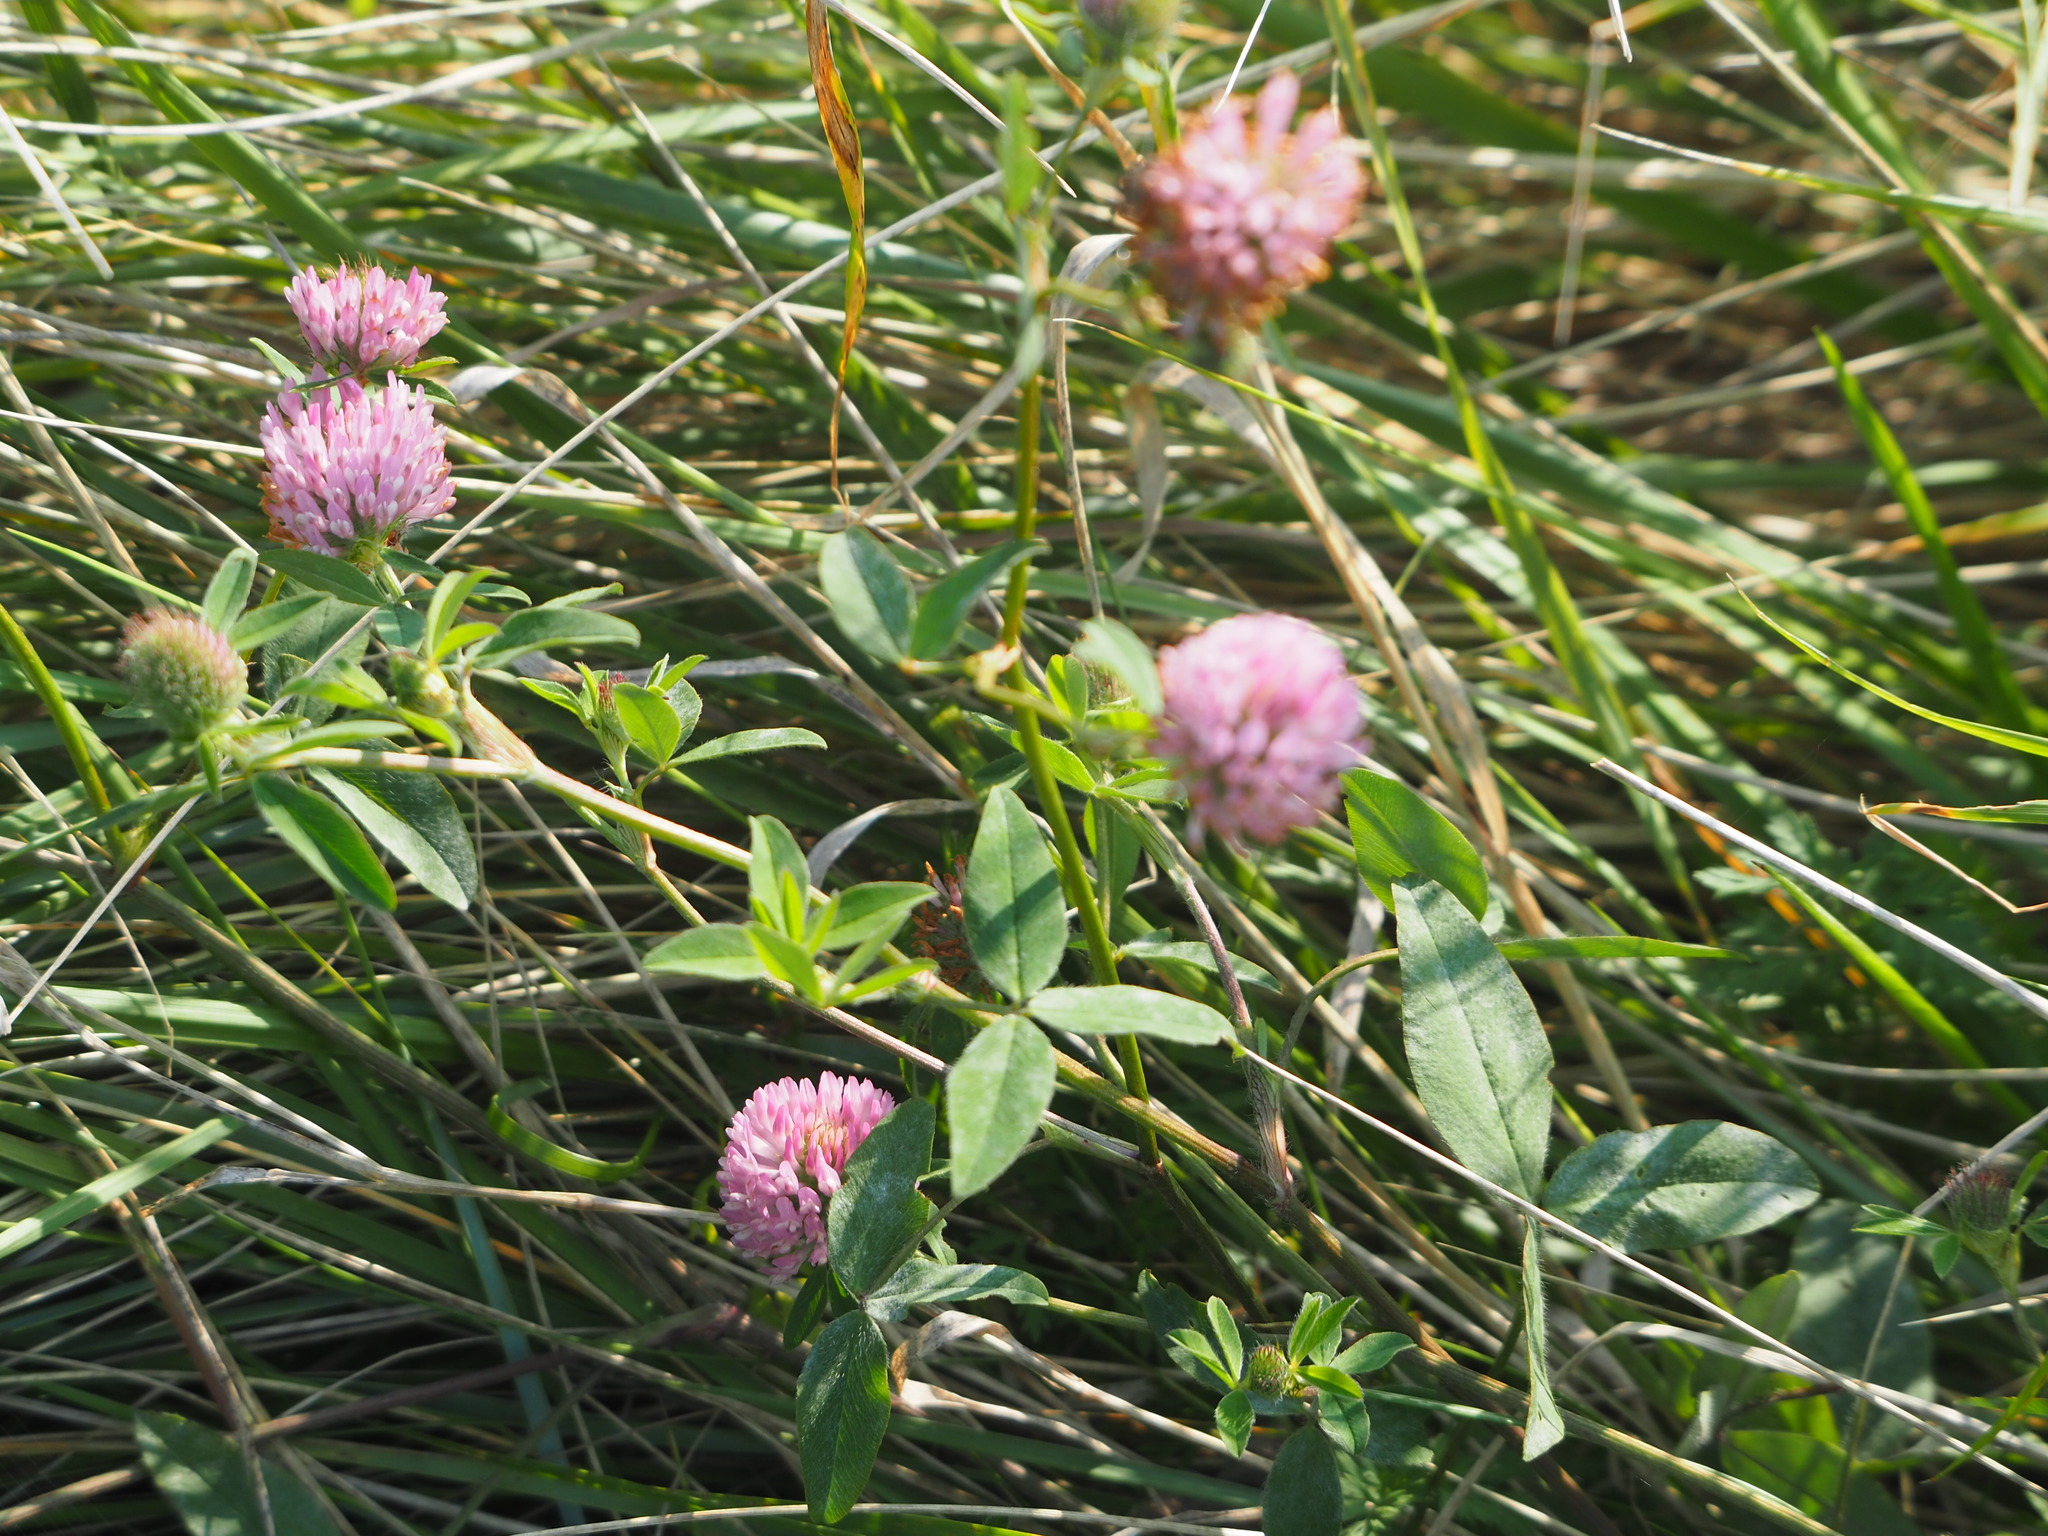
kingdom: Plantae
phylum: Tracheophyta
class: Magnoliopsida
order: Fabales
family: Fabaceae
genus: Trifolium
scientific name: Trifolium pratense
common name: Red clover
